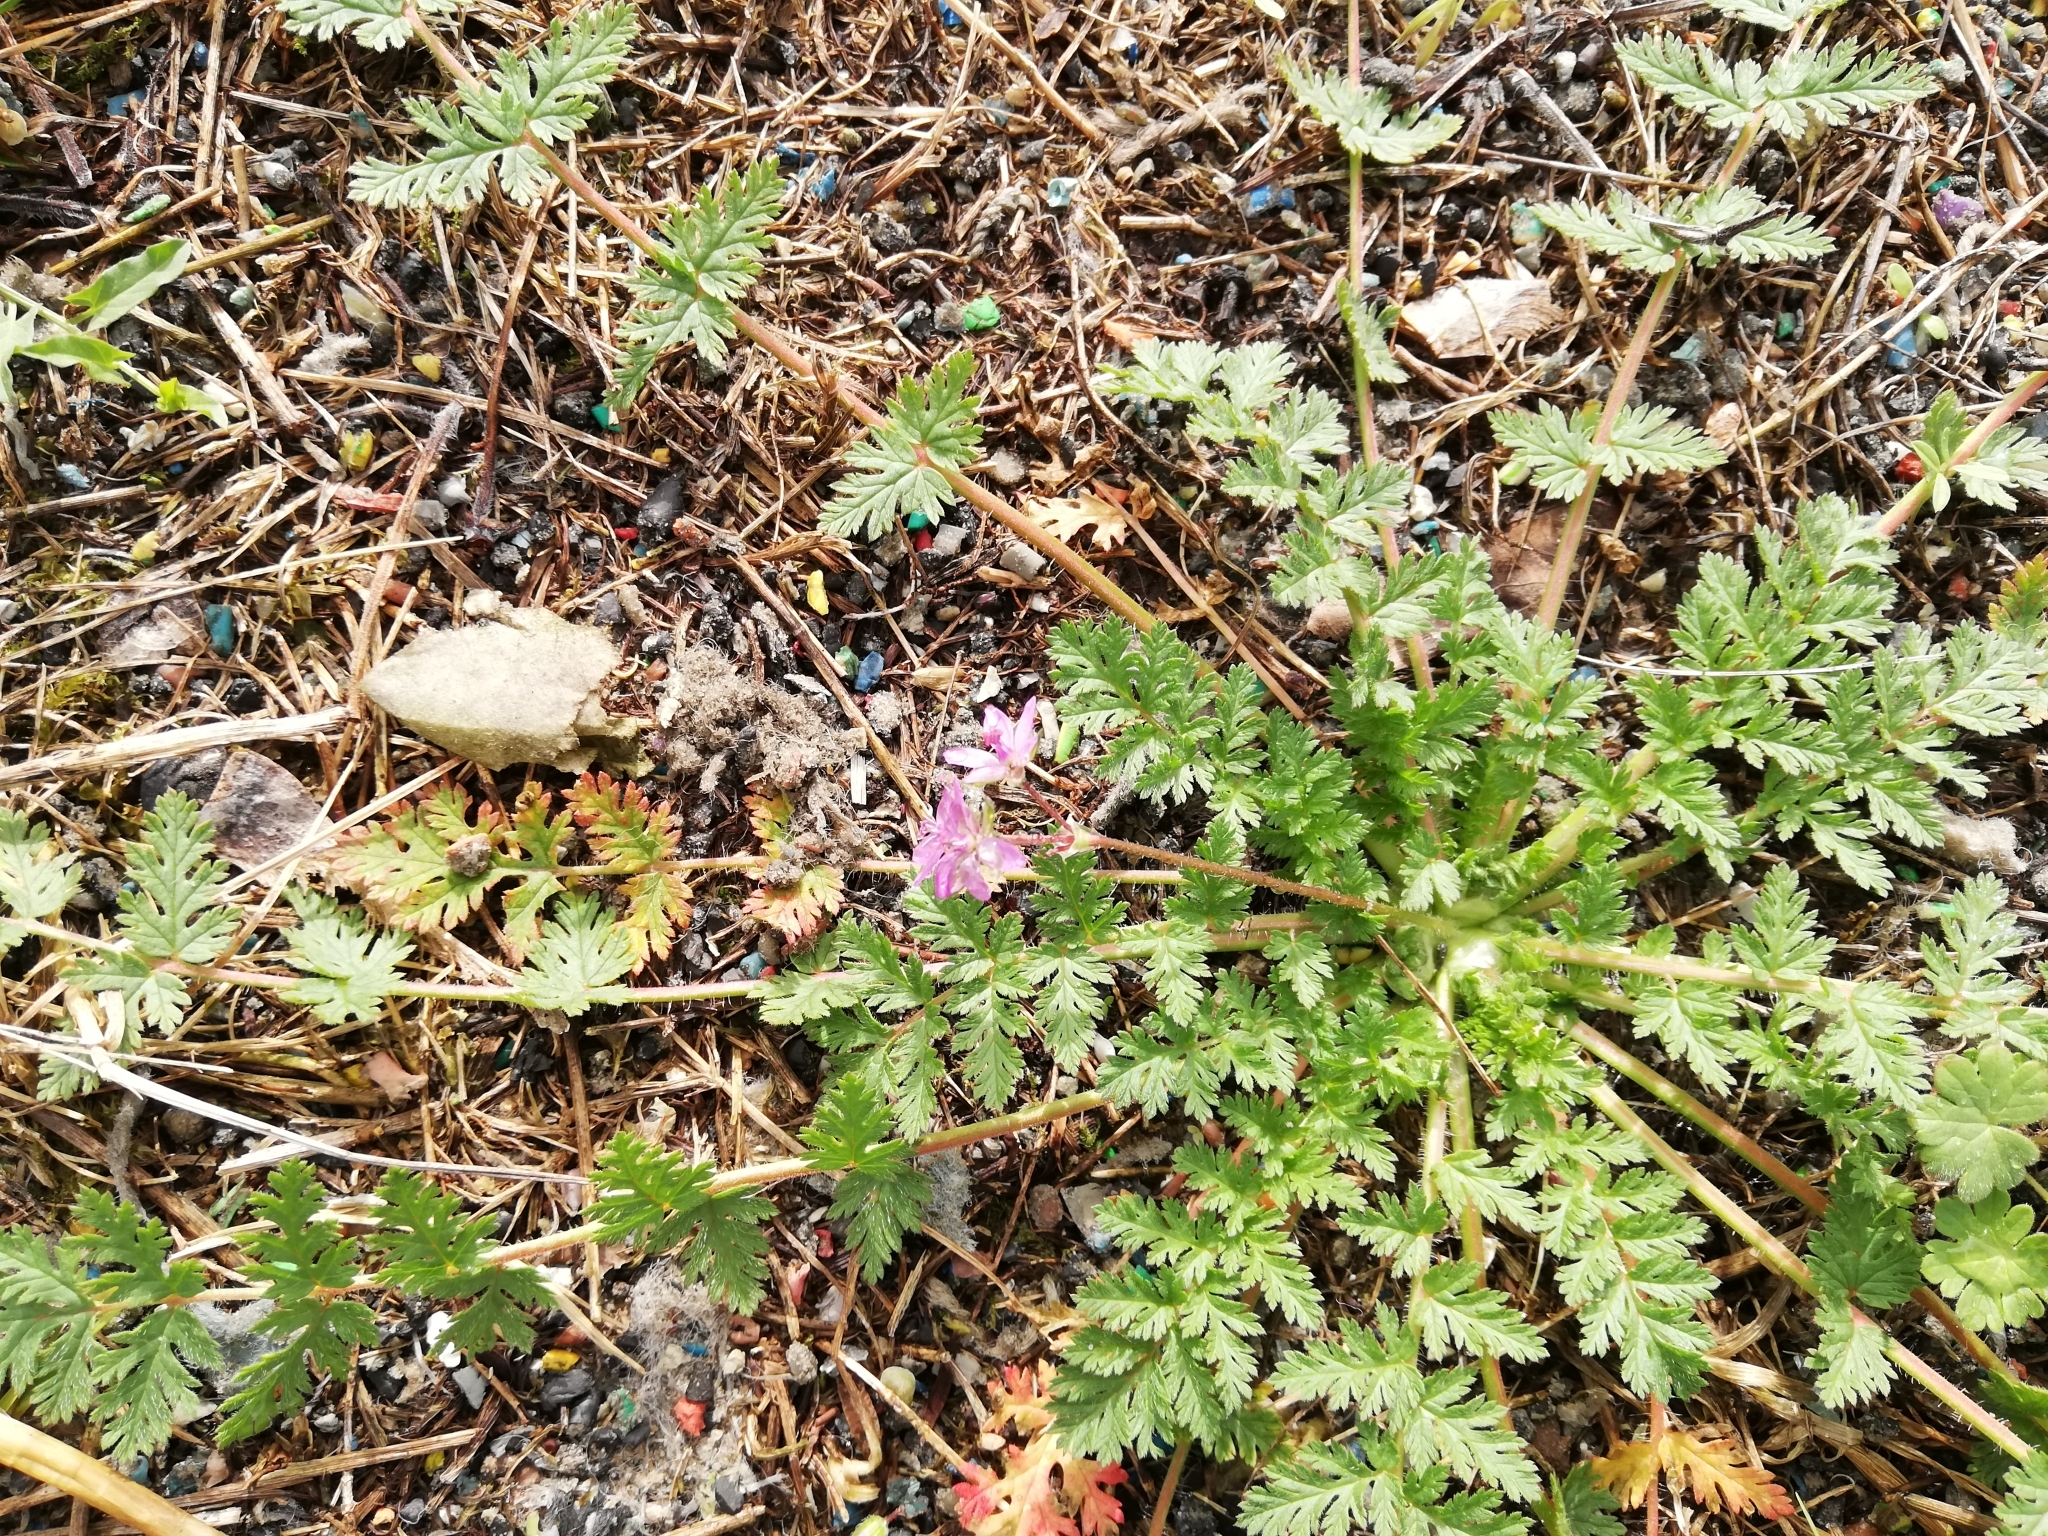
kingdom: Plantae
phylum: Tracheophyta
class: Magnoliopsida
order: Geraniales
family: Geraniaceae
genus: Erodium
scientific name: Erodium cicutarium
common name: Common stork's-bill
